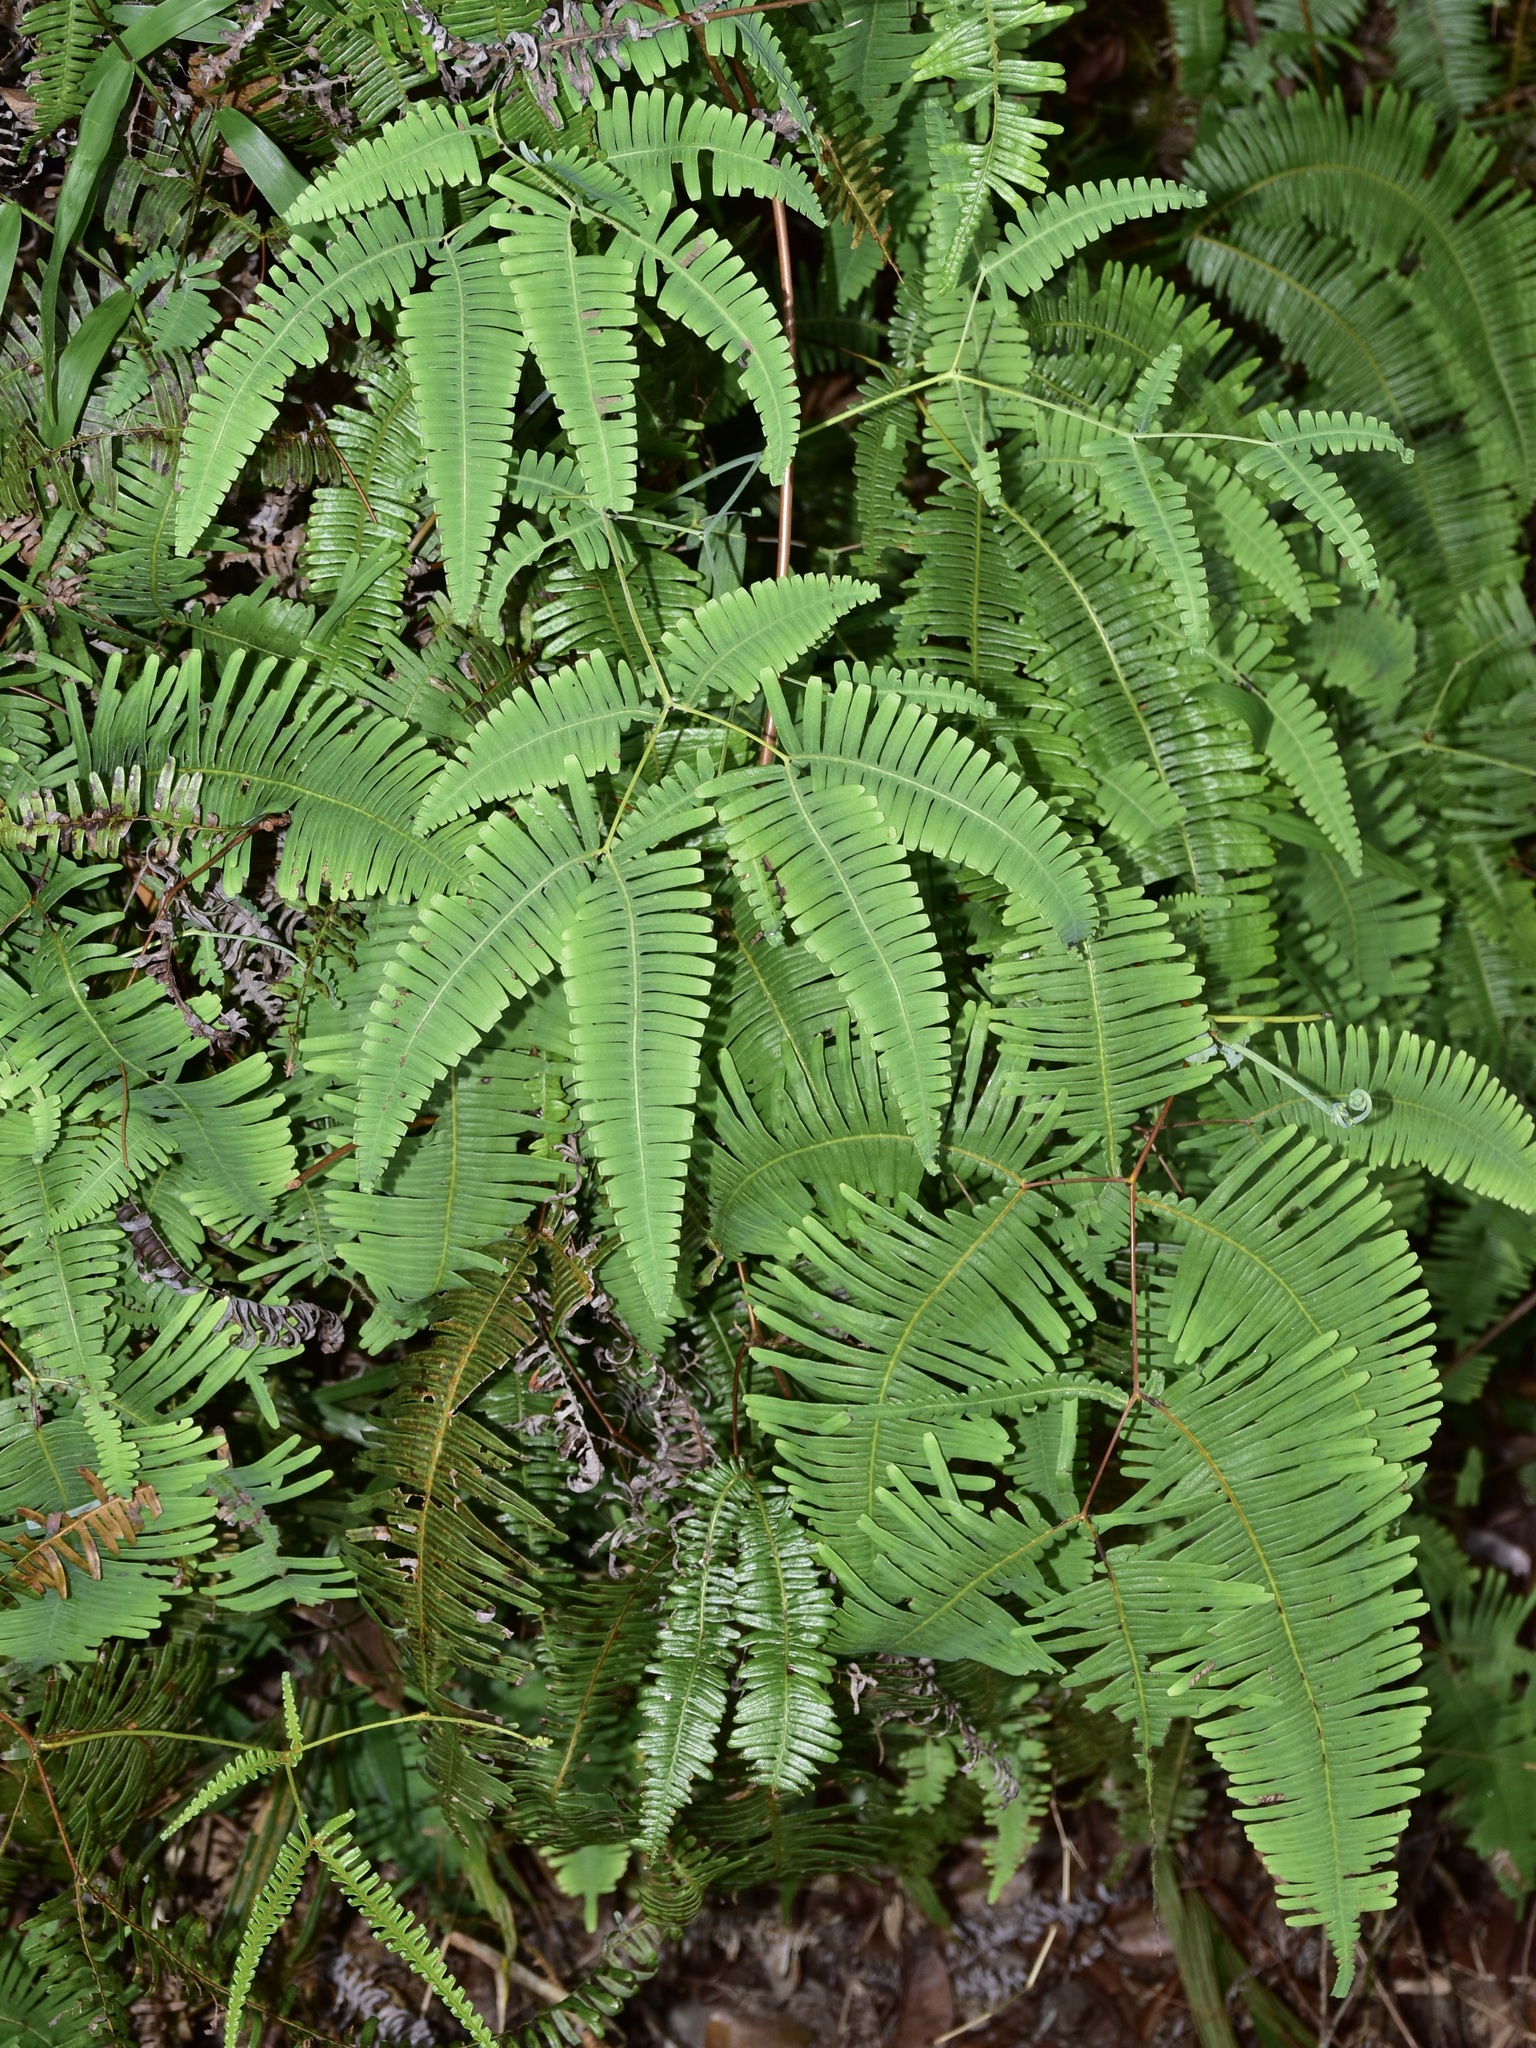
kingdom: Plantae
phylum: Tracheophyta
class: Polypodiopsida
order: Gleicheniales
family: Gleicheniaceae
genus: Dicranopteris
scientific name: Dicranopteris linearis
